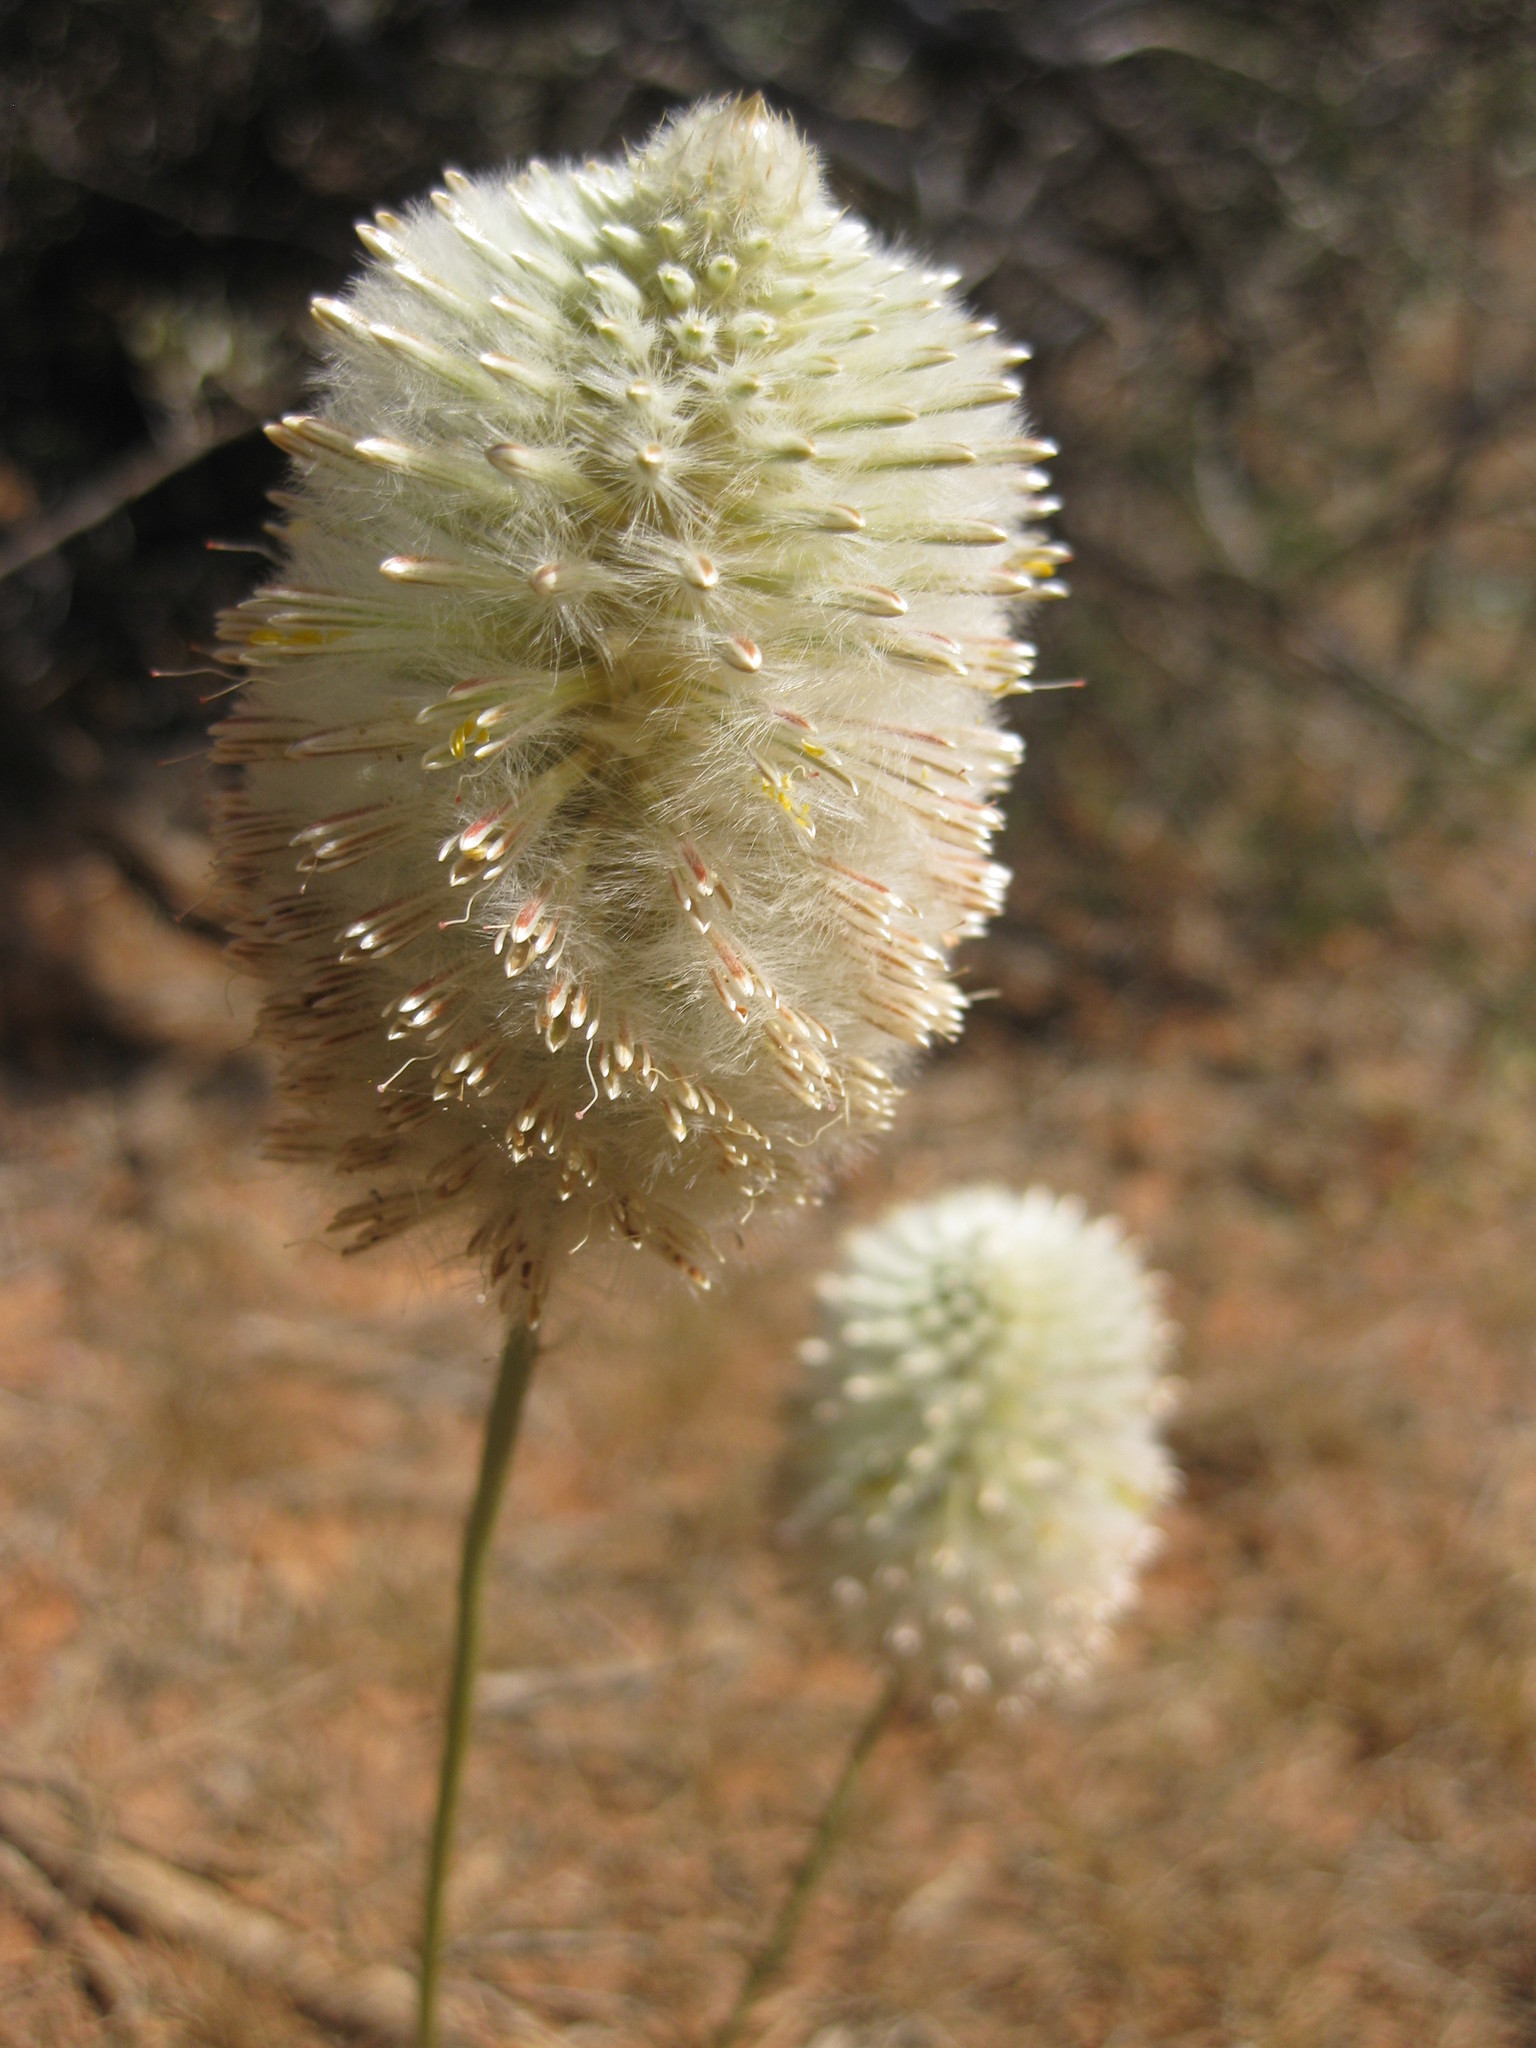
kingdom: Plantae
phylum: Tracheophyta
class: Magnoliopsida
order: Caryophyllales
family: Amaranthaceae
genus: Ptilotus
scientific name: Ptilotus xerophilus
